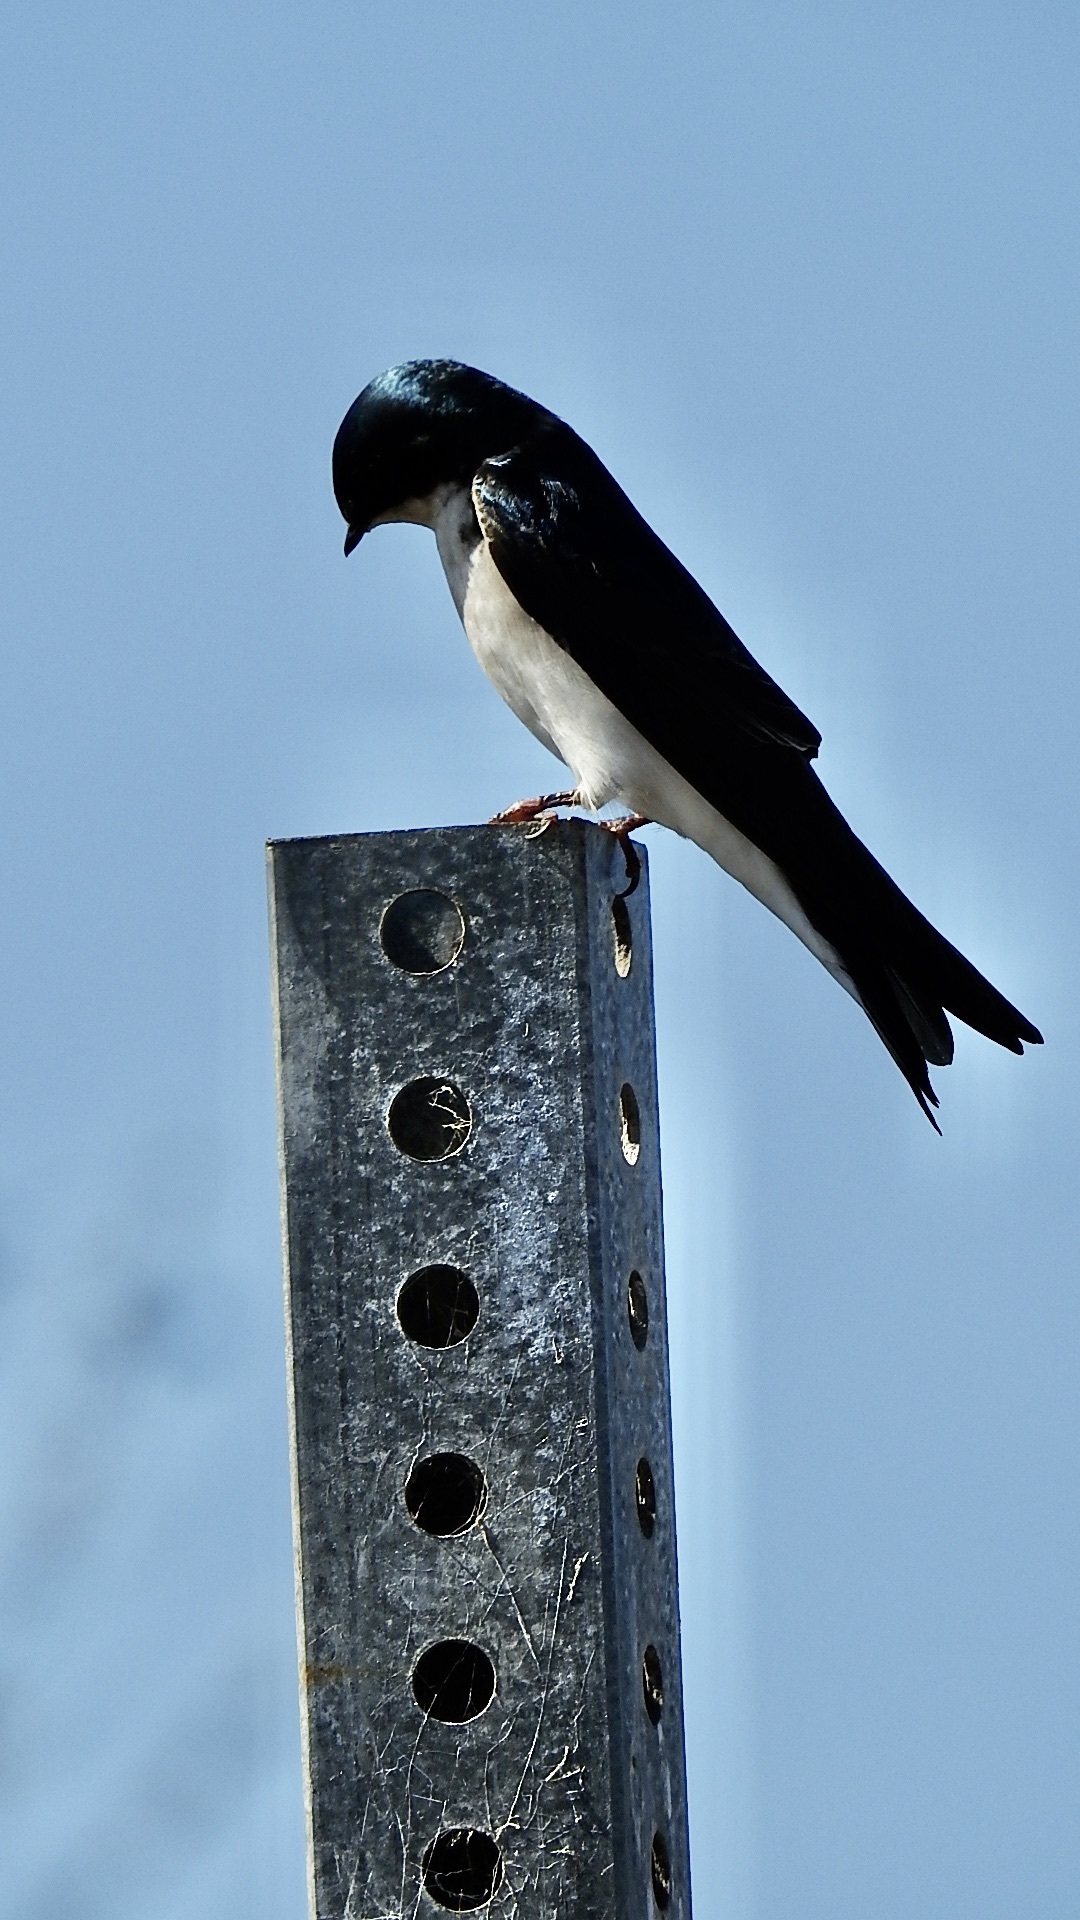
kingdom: Animalia
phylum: Chordata
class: Aves
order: Passeriformes
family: Hirundinidae
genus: Tachycineta
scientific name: Tachycineta bicolor
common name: Tree swallow
